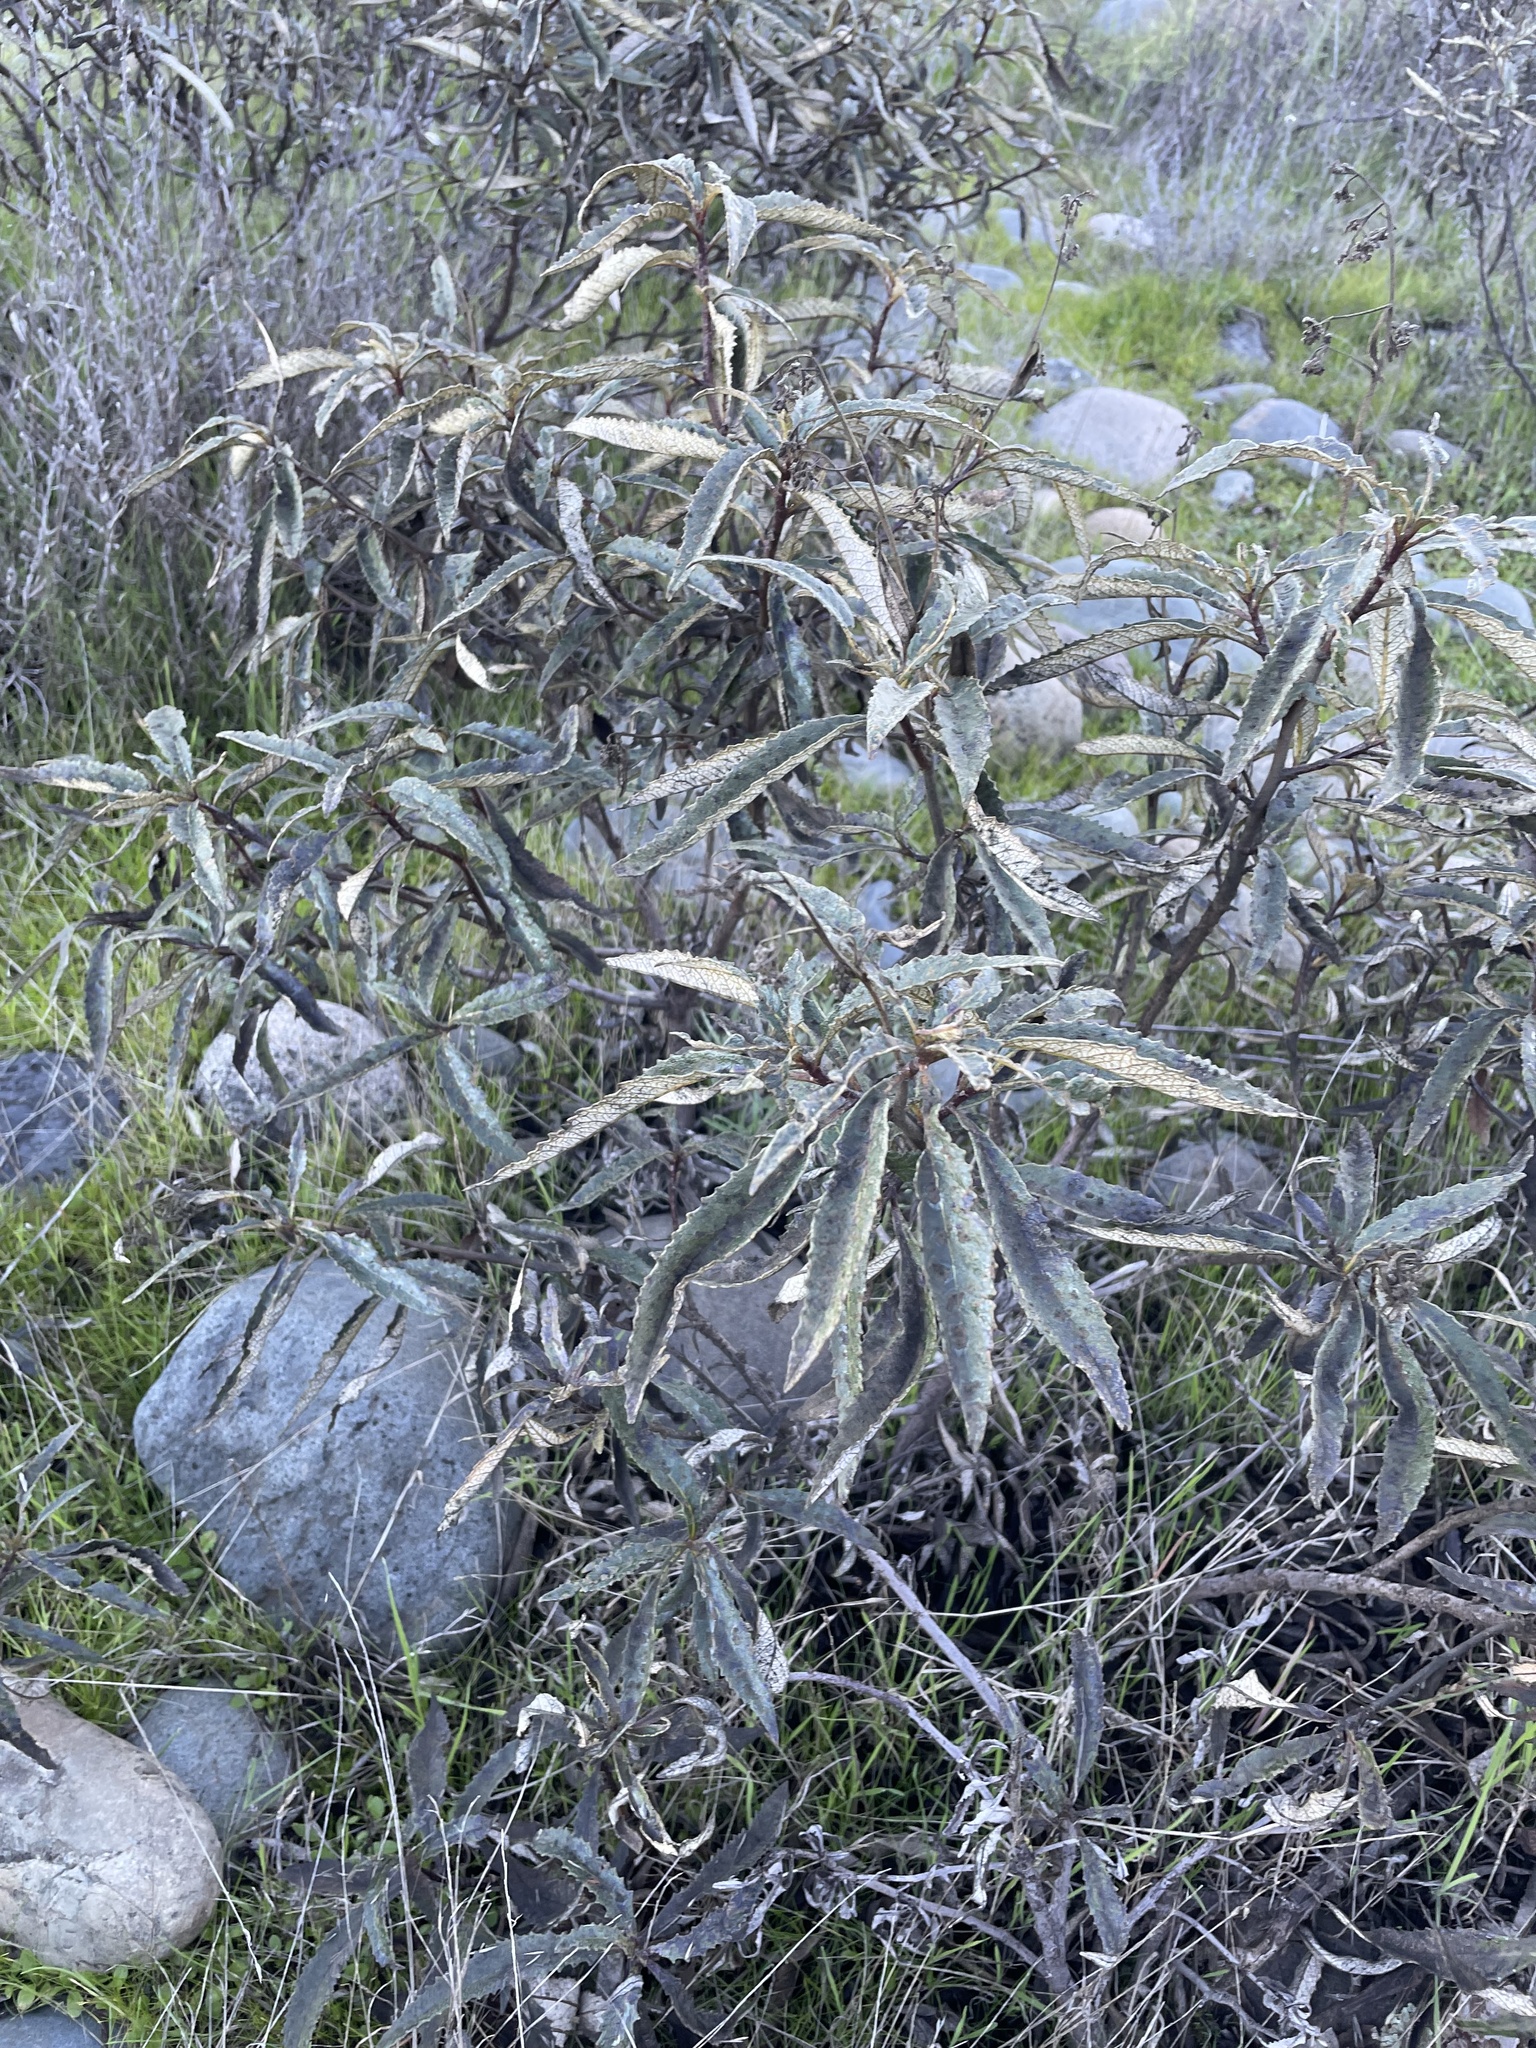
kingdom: Plantae
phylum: Tracheophyta
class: Magnoliopsida
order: Boraginales
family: Namaceae
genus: Eriodictyon
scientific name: Eriodictyon californicum
